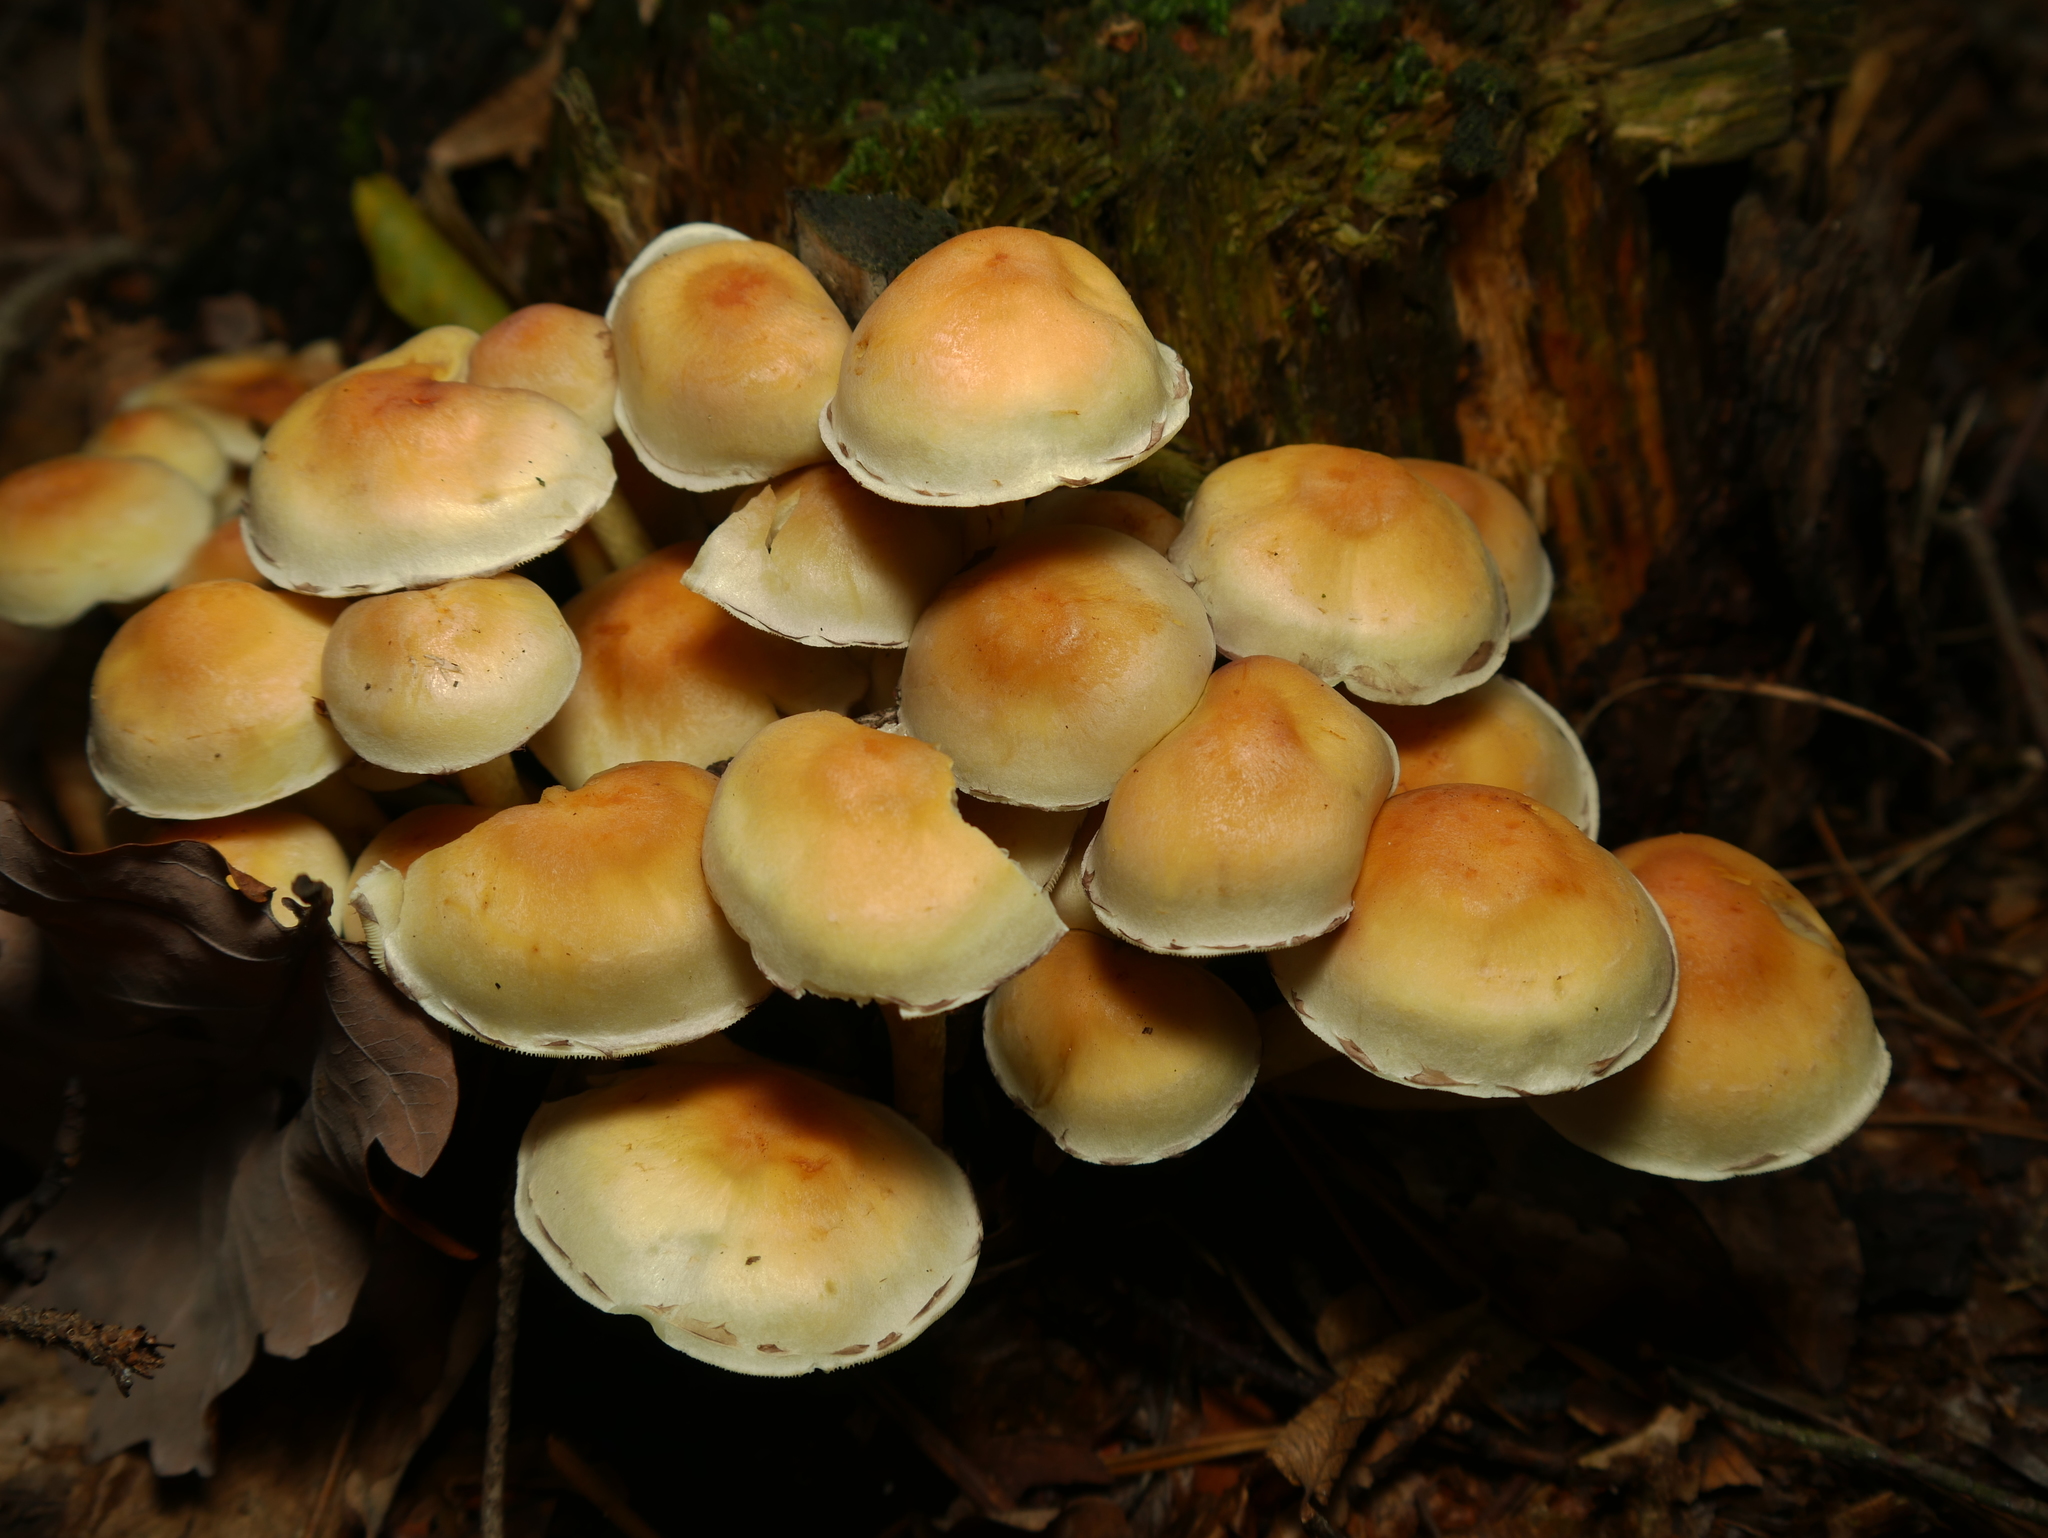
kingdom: Fungi
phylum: Basidiomycota
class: Agaricomycetes
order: Agaricales
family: Strophariaceae
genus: Hypholoma
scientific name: Hypholoma fasciculare
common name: Sulphur tuft
